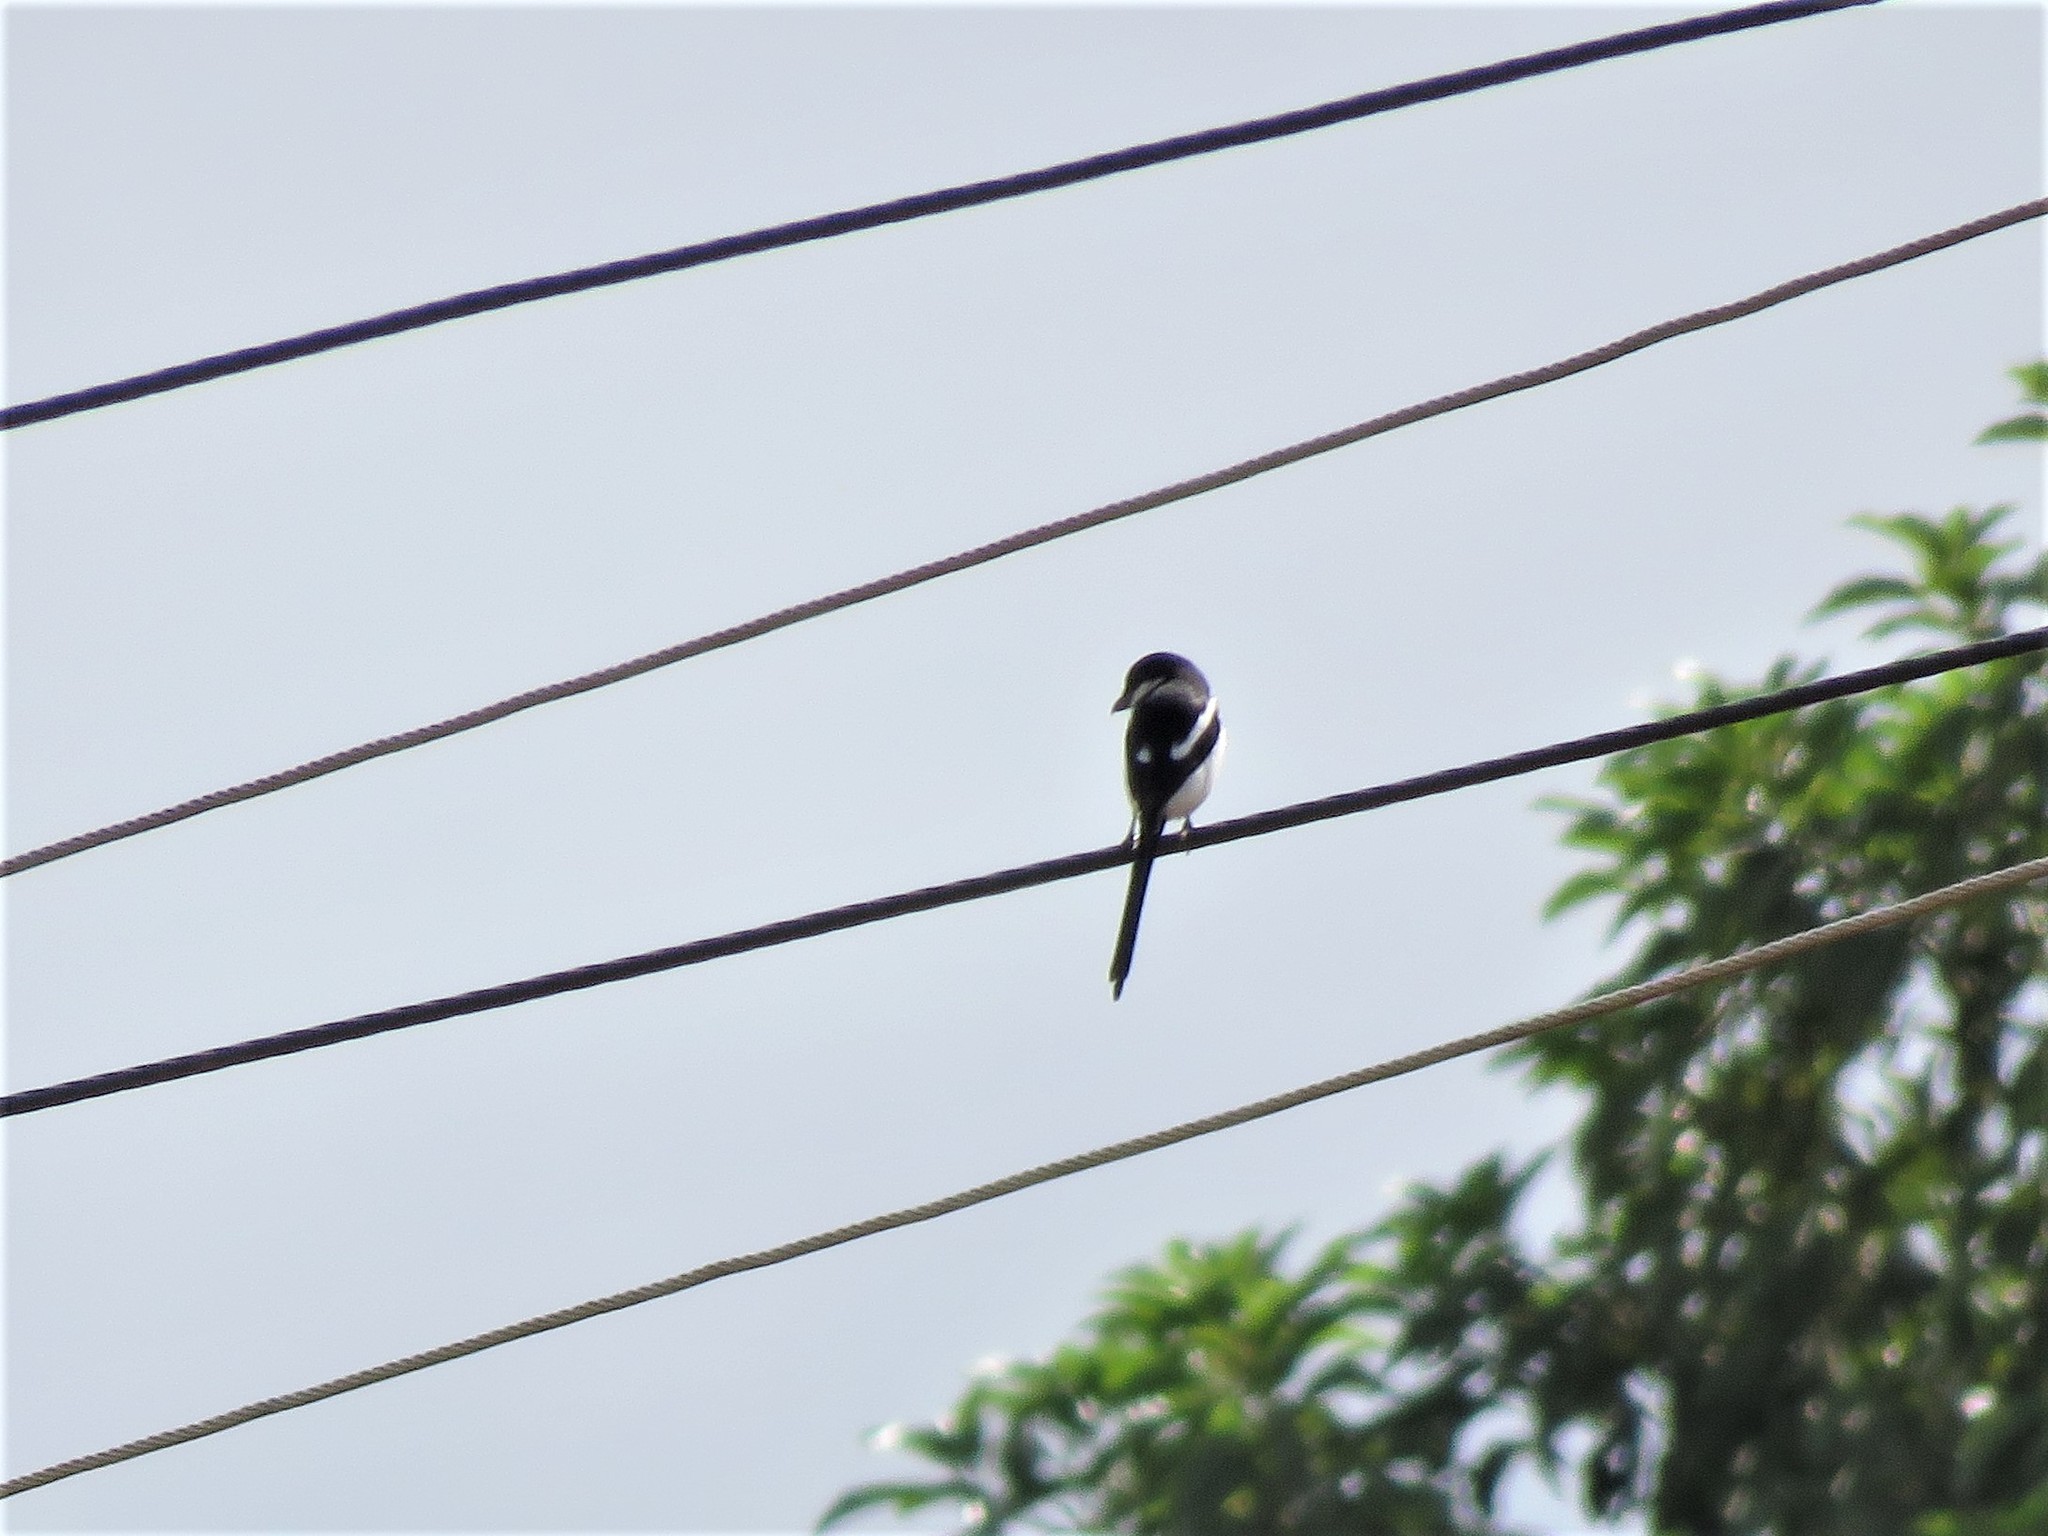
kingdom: Animalia
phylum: Chordata
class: Aves
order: Passeriformes
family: Laniidae
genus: Lanius
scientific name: Lanius humeralis
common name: Northern fiscal
